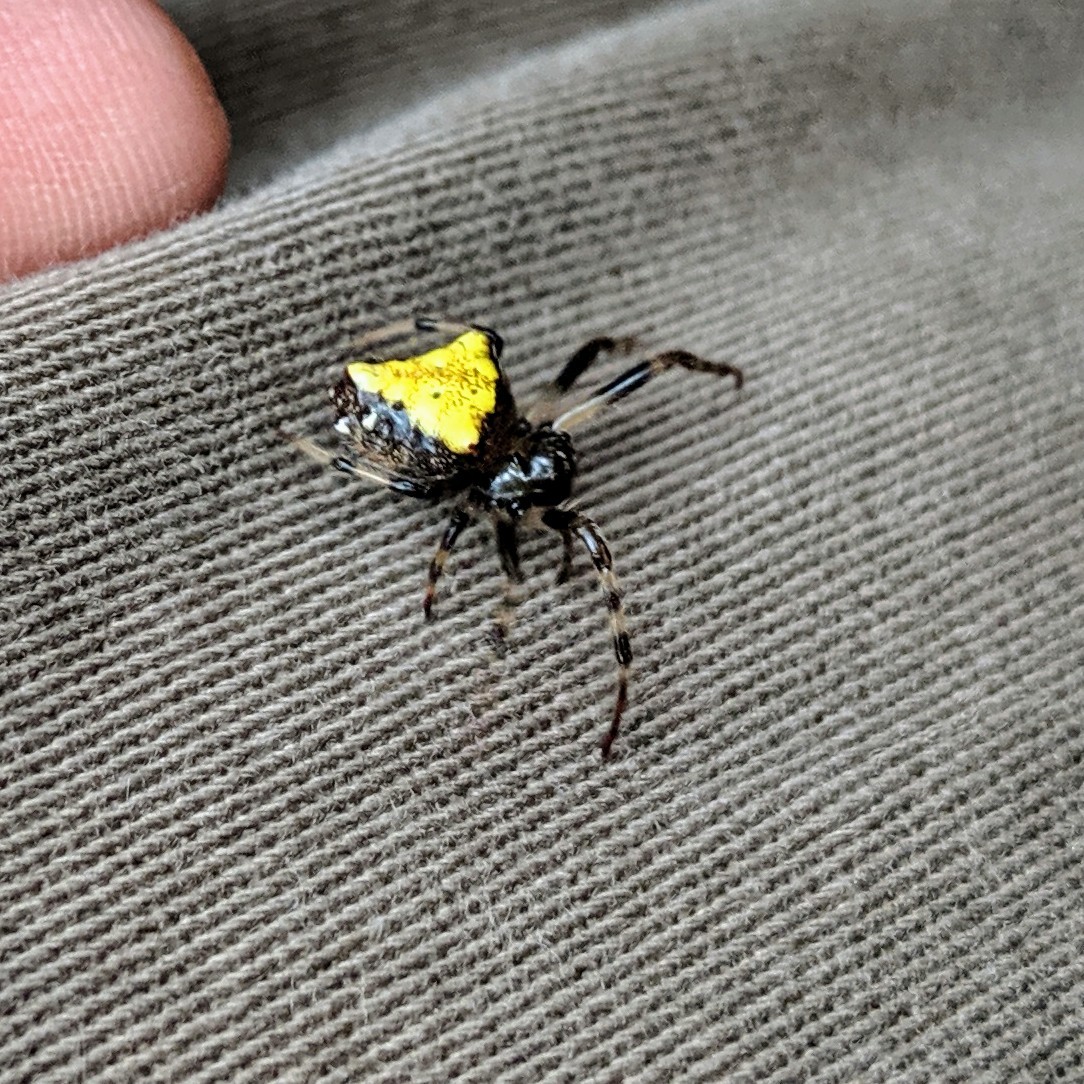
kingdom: Animalia
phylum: Arthropoda
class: Arachnida
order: Araneae
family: Araneidae
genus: Verrucosa
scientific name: Verrucosa arenata
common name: Orb weavers
